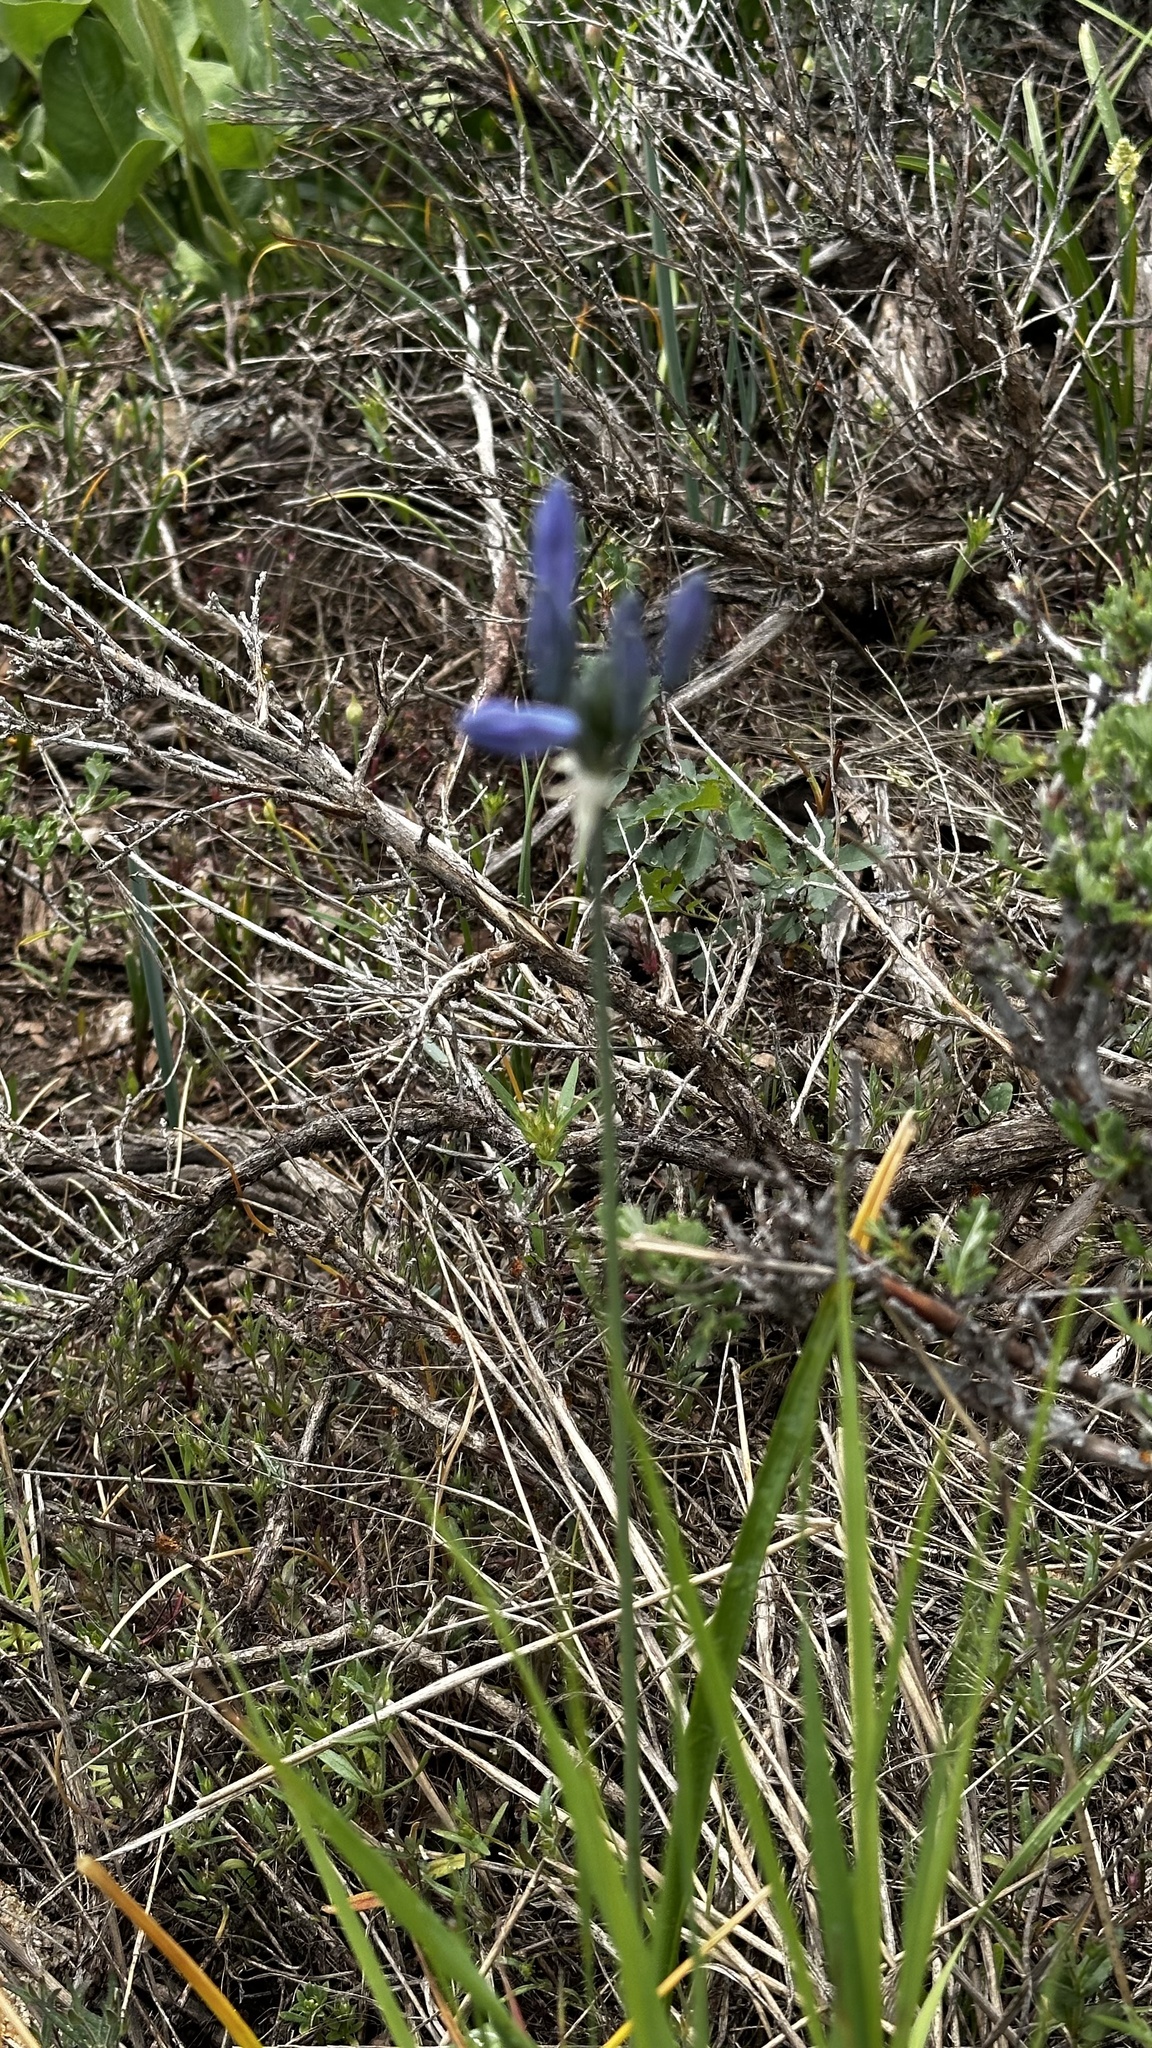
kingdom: Plantae
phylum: Tracheophyta
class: Liliopsida
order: Asparagales
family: Asparagaceae
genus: Triteleia
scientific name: Triteleia grandiflora
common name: Wild hyacinth
